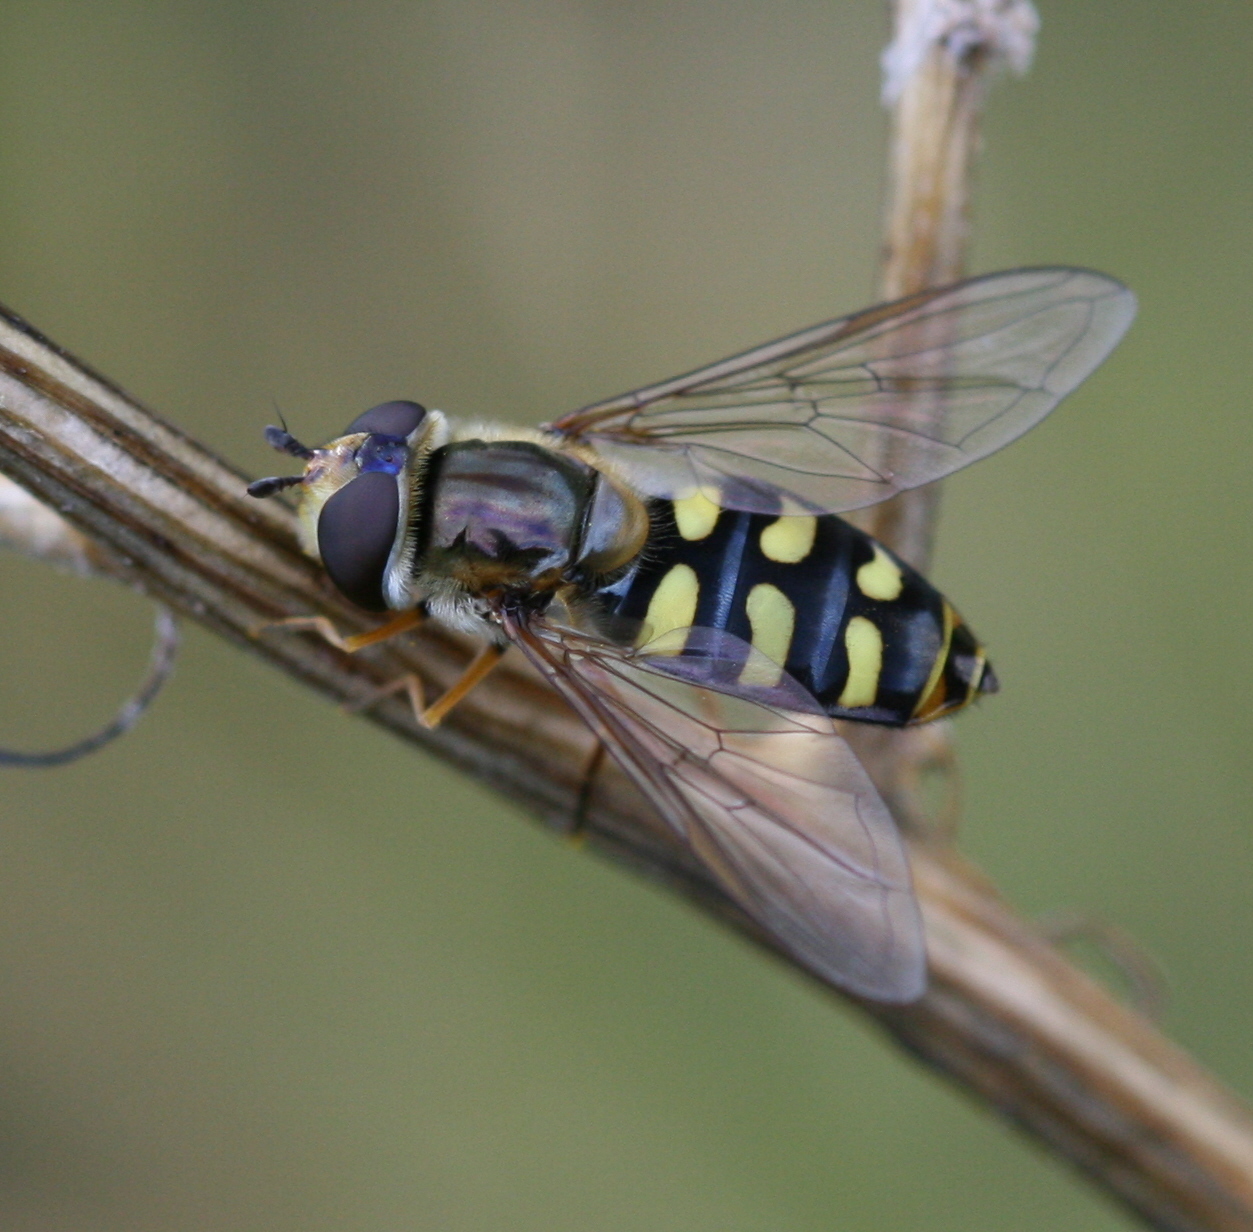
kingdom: Animalia
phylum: Arthropoda
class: Insecta
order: Diptera
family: Syrphidae
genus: Eupeodes
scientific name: Eupeodes luniger
